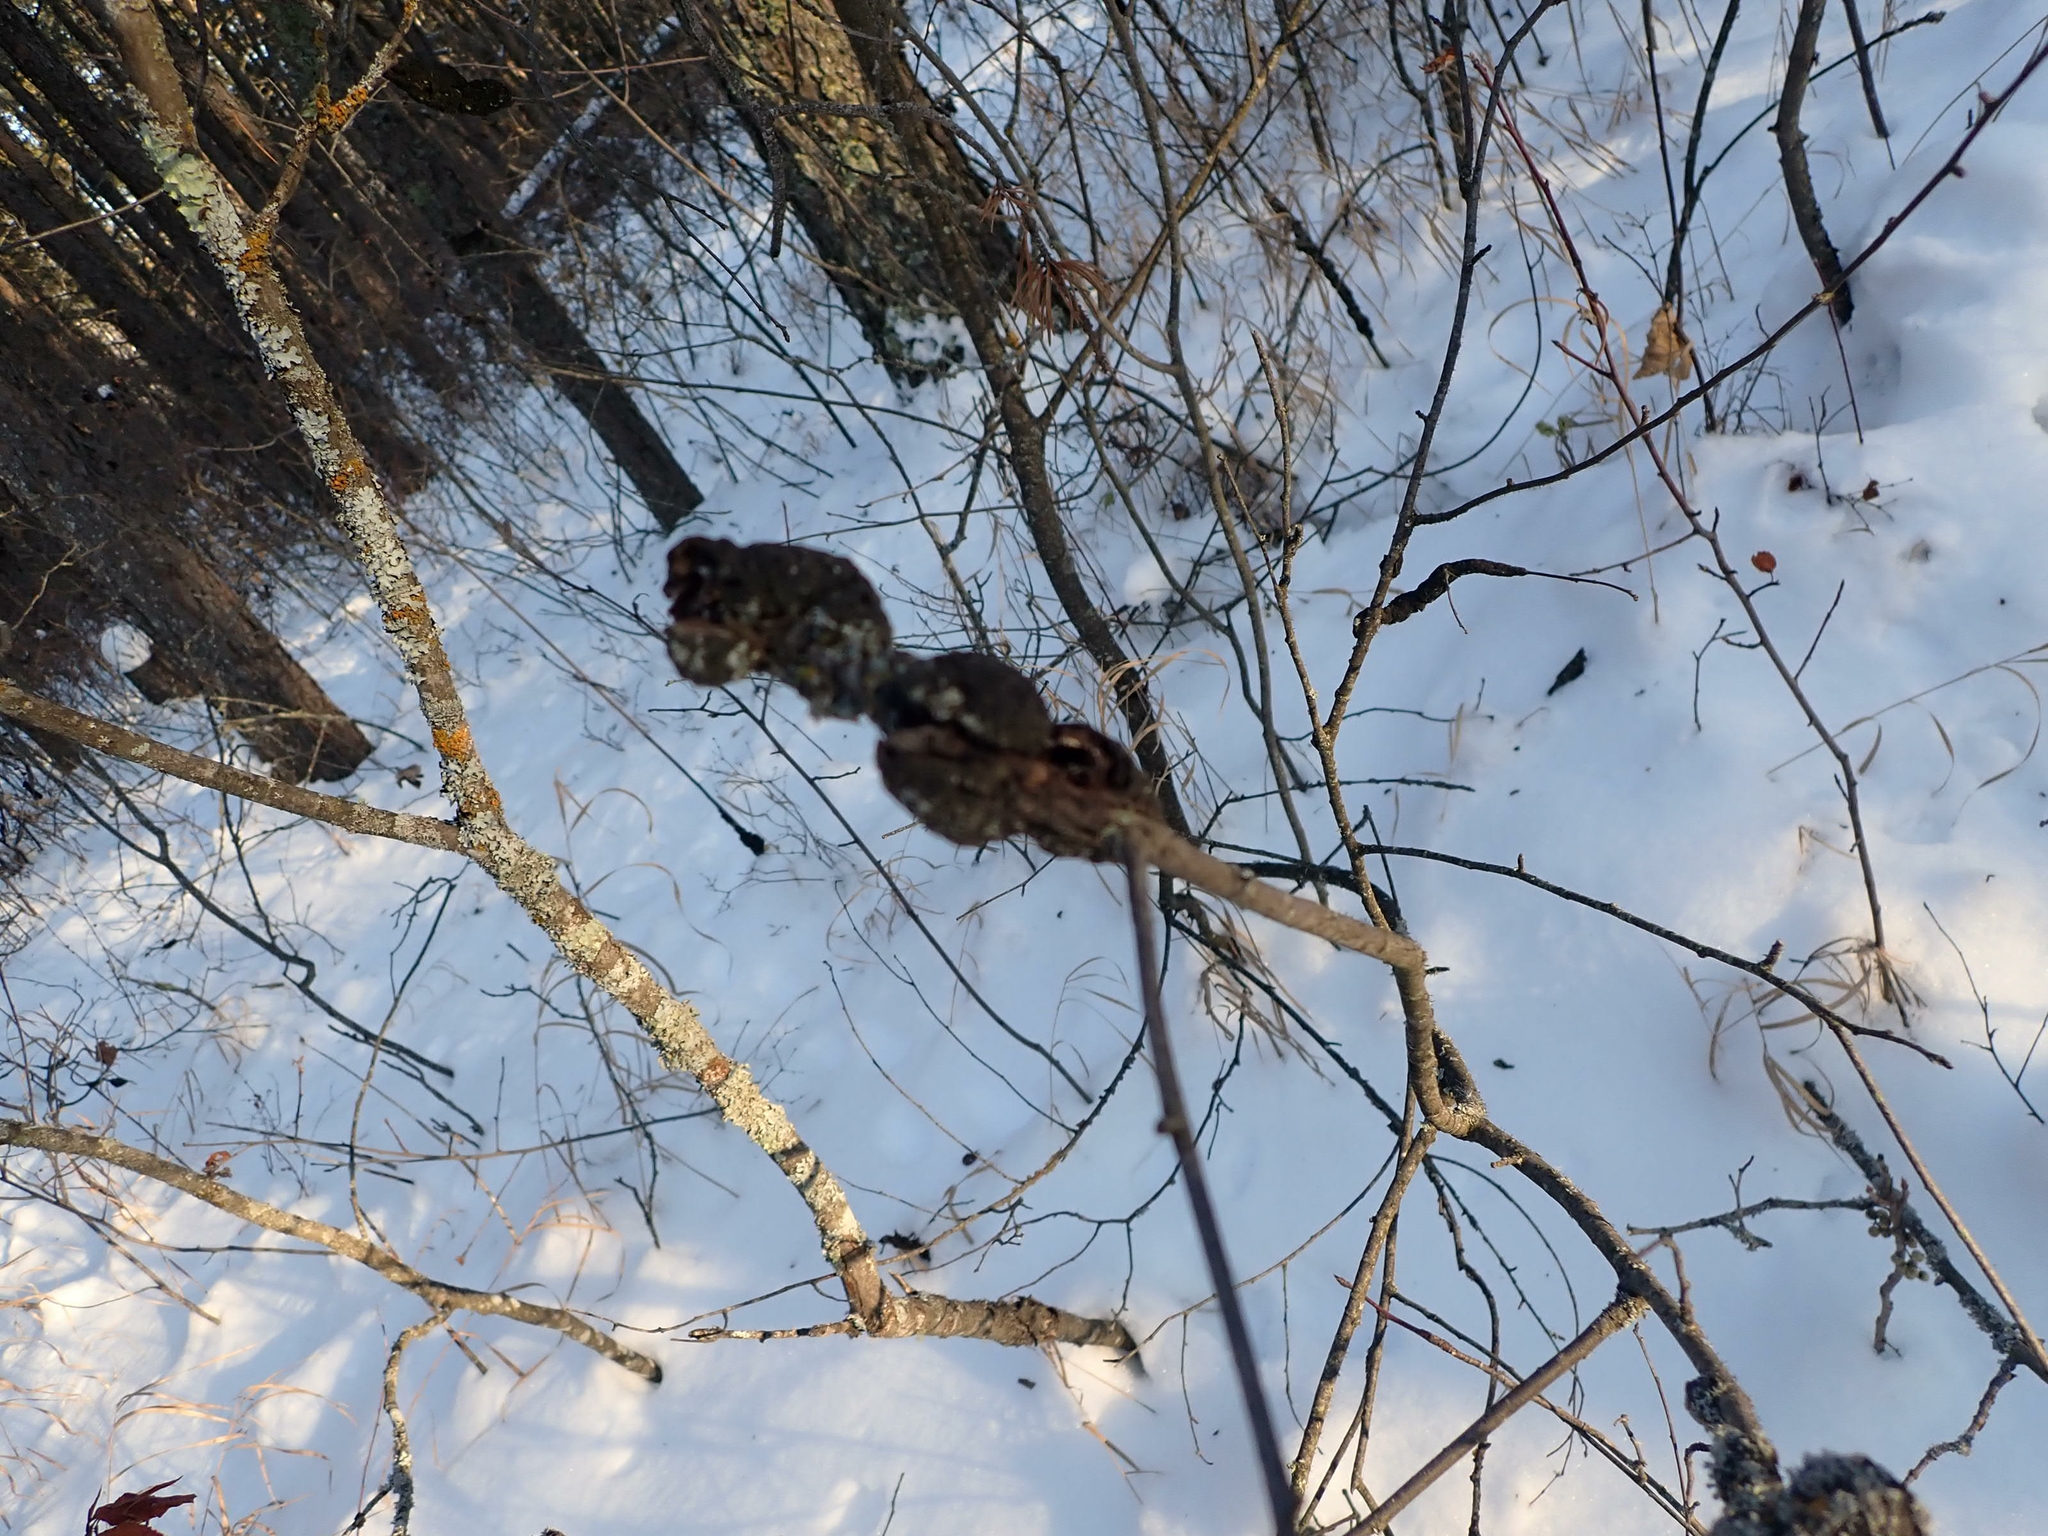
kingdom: Fungi
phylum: Ascomycota
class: Dothideomycetes
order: Venturiales
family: Venturiaceae
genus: Apiosporina
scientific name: Apiosporina morbosa
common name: Black knot
